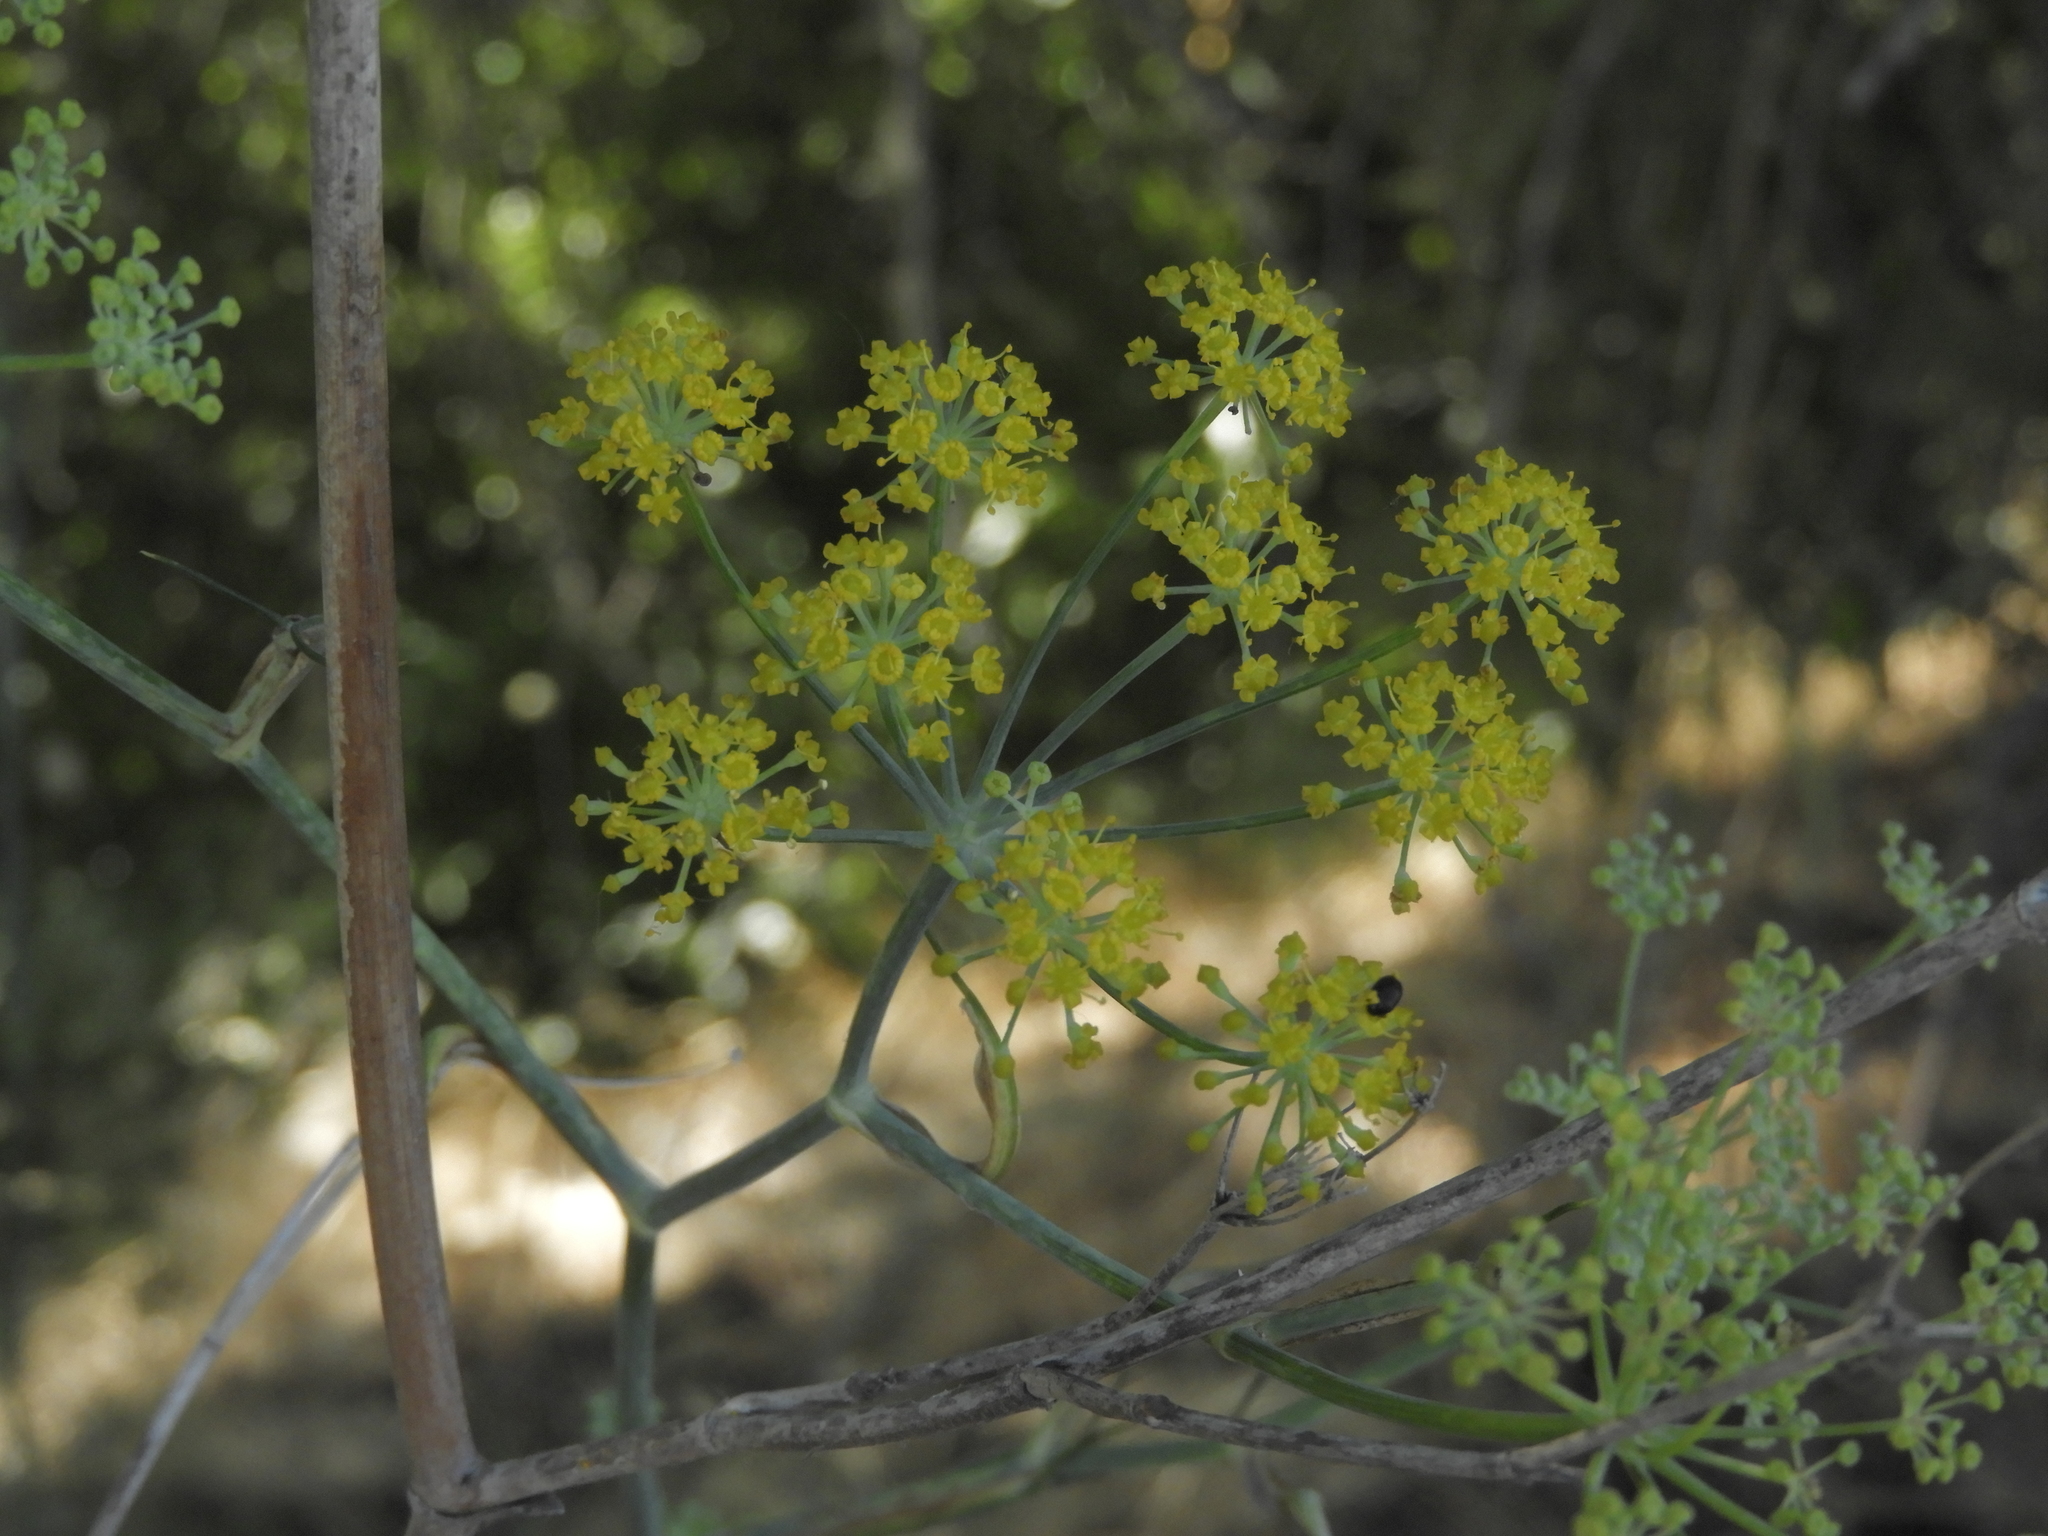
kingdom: Plantae
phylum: Tracheophyta
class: Magnoliopsida
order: Apiales
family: Apiaceae
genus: Foeniculum
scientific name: Foeniculum vulgare
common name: Fennel
